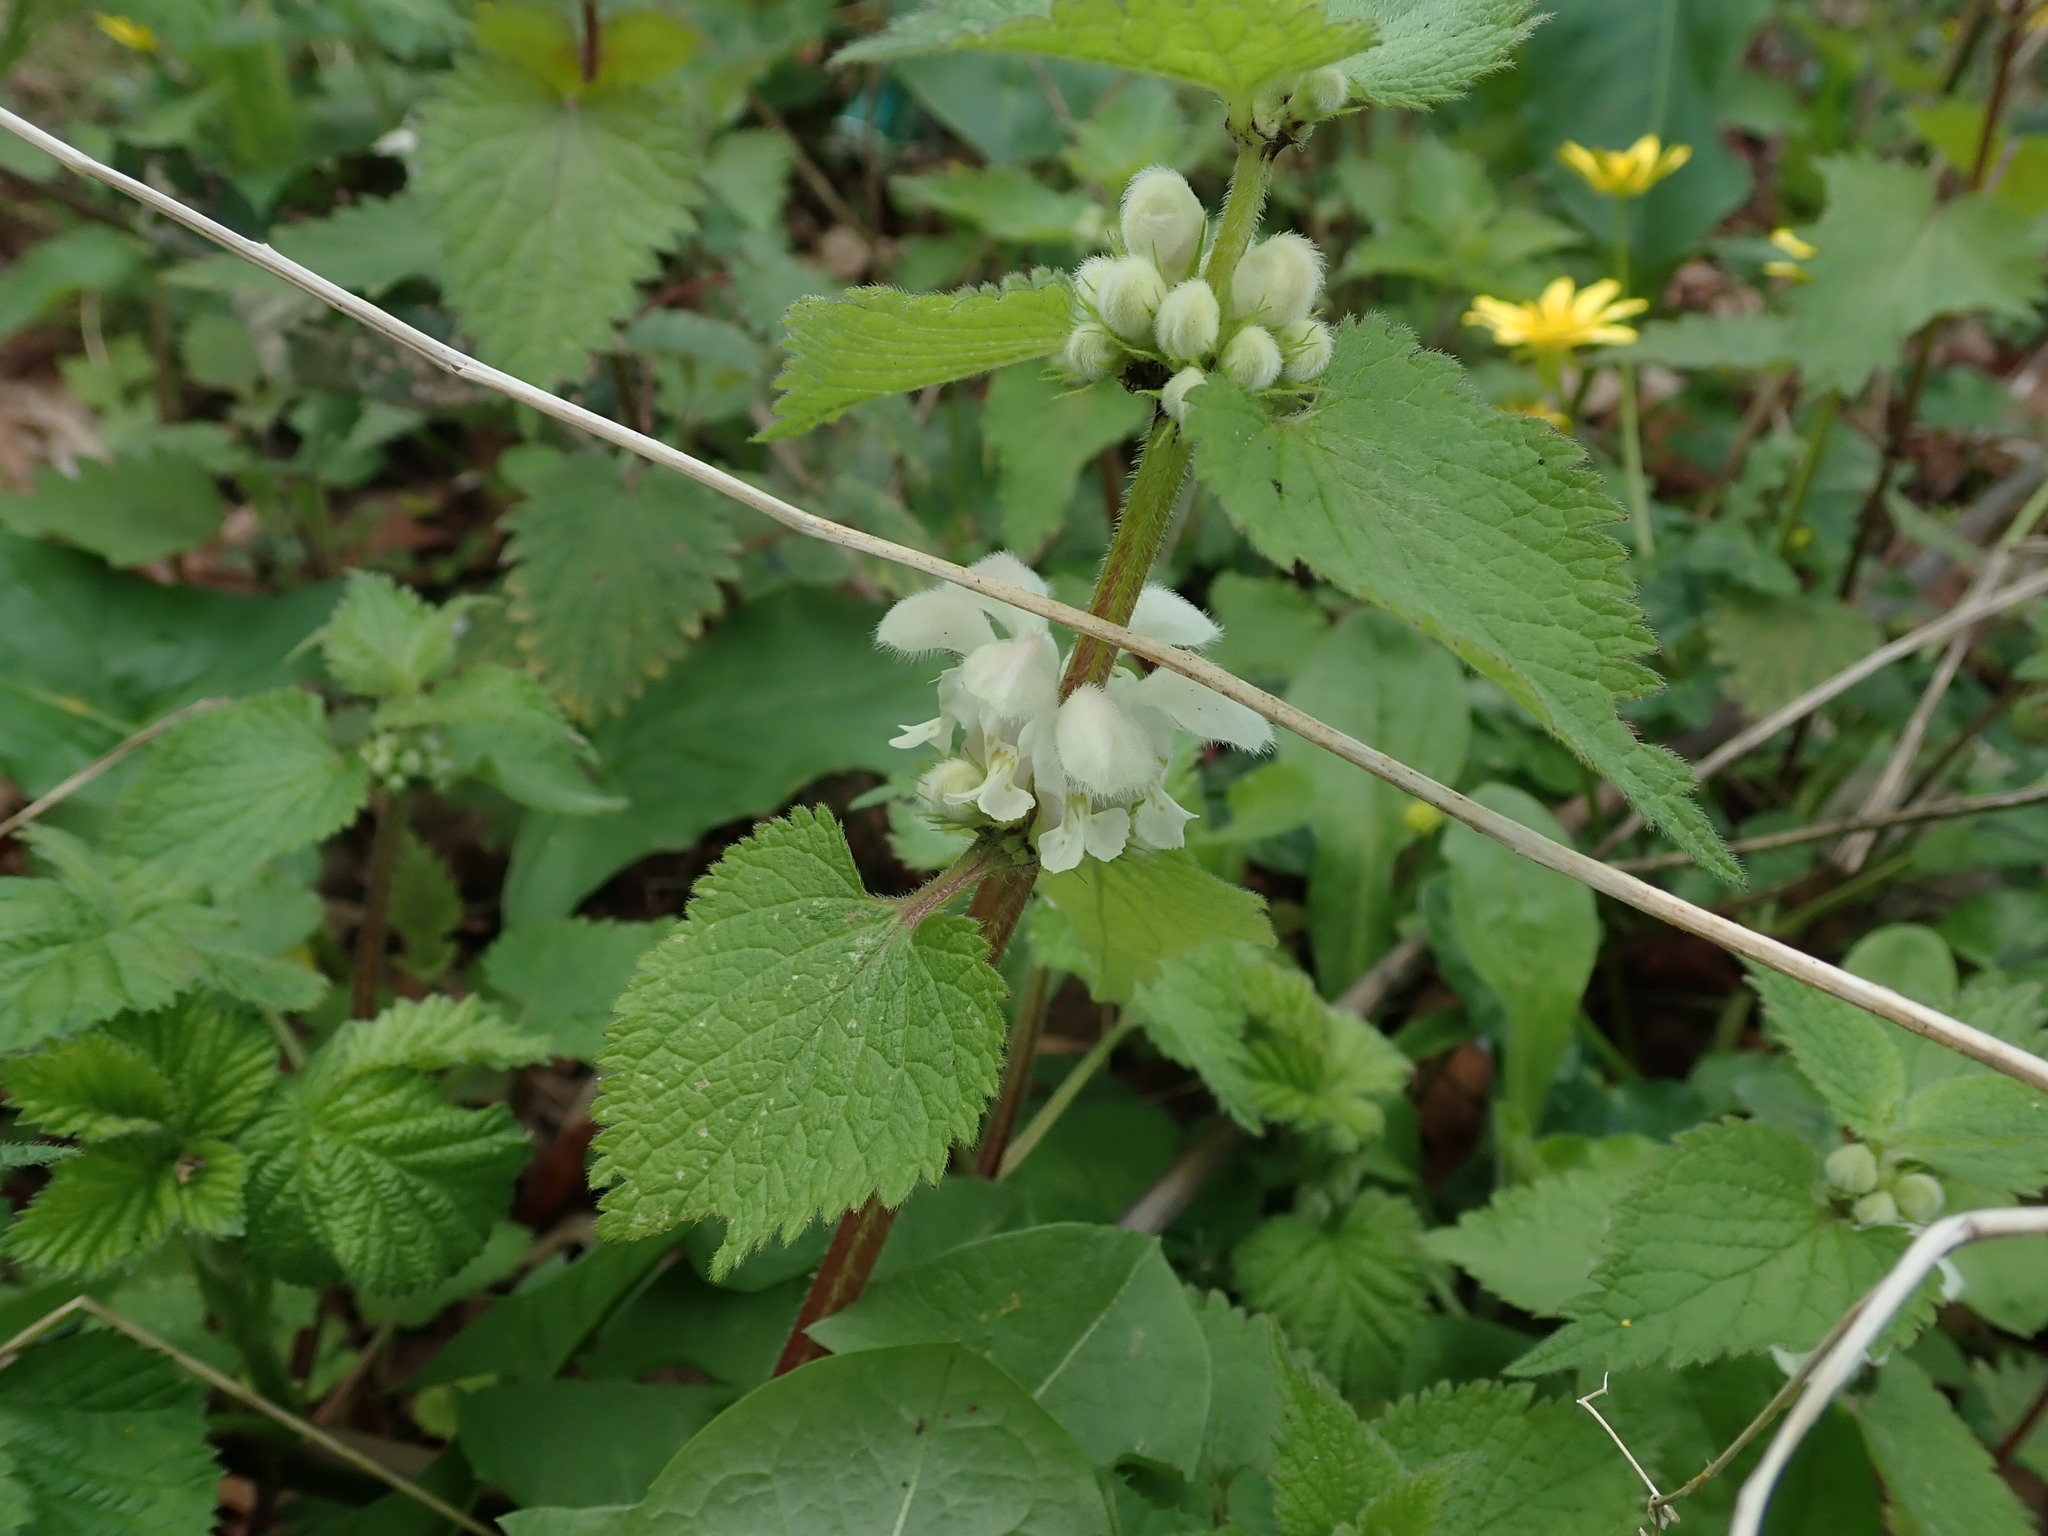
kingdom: Plantae
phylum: Tracheophyta
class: Magnoliopsida
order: Lamiales
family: Lamiaceae
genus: Lamium
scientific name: Lamium album
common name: White dead-nettle
